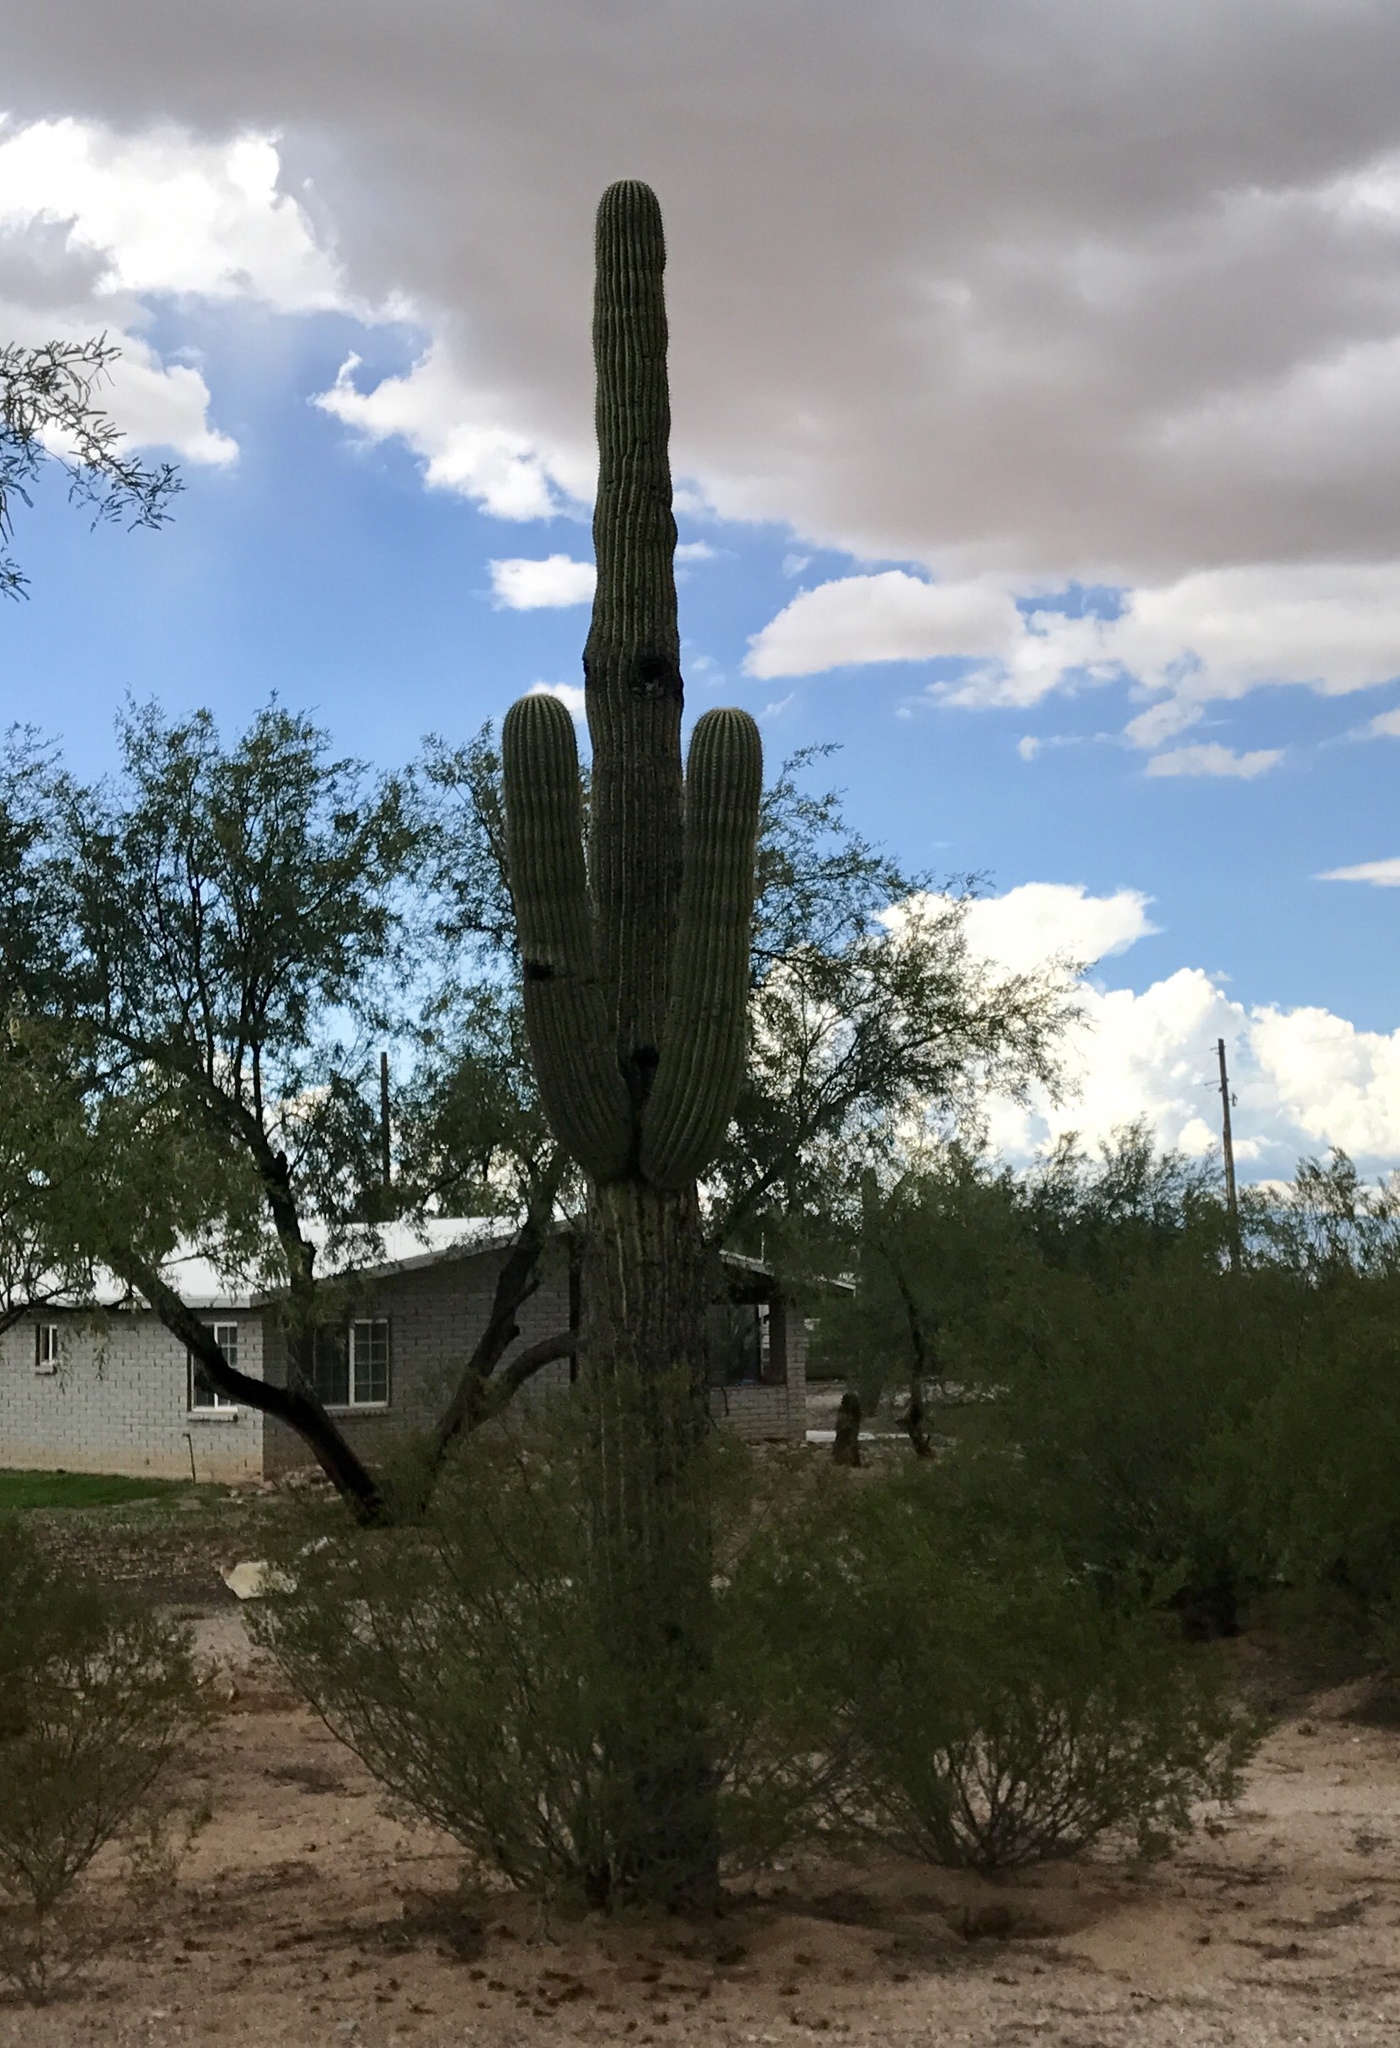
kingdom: Plantae
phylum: Tracheophyta
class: Magnoliopsida
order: Caryophyllales
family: Cactaceae
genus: Carnegiea
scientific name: Carnegiea gigantea
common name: Saguaro
